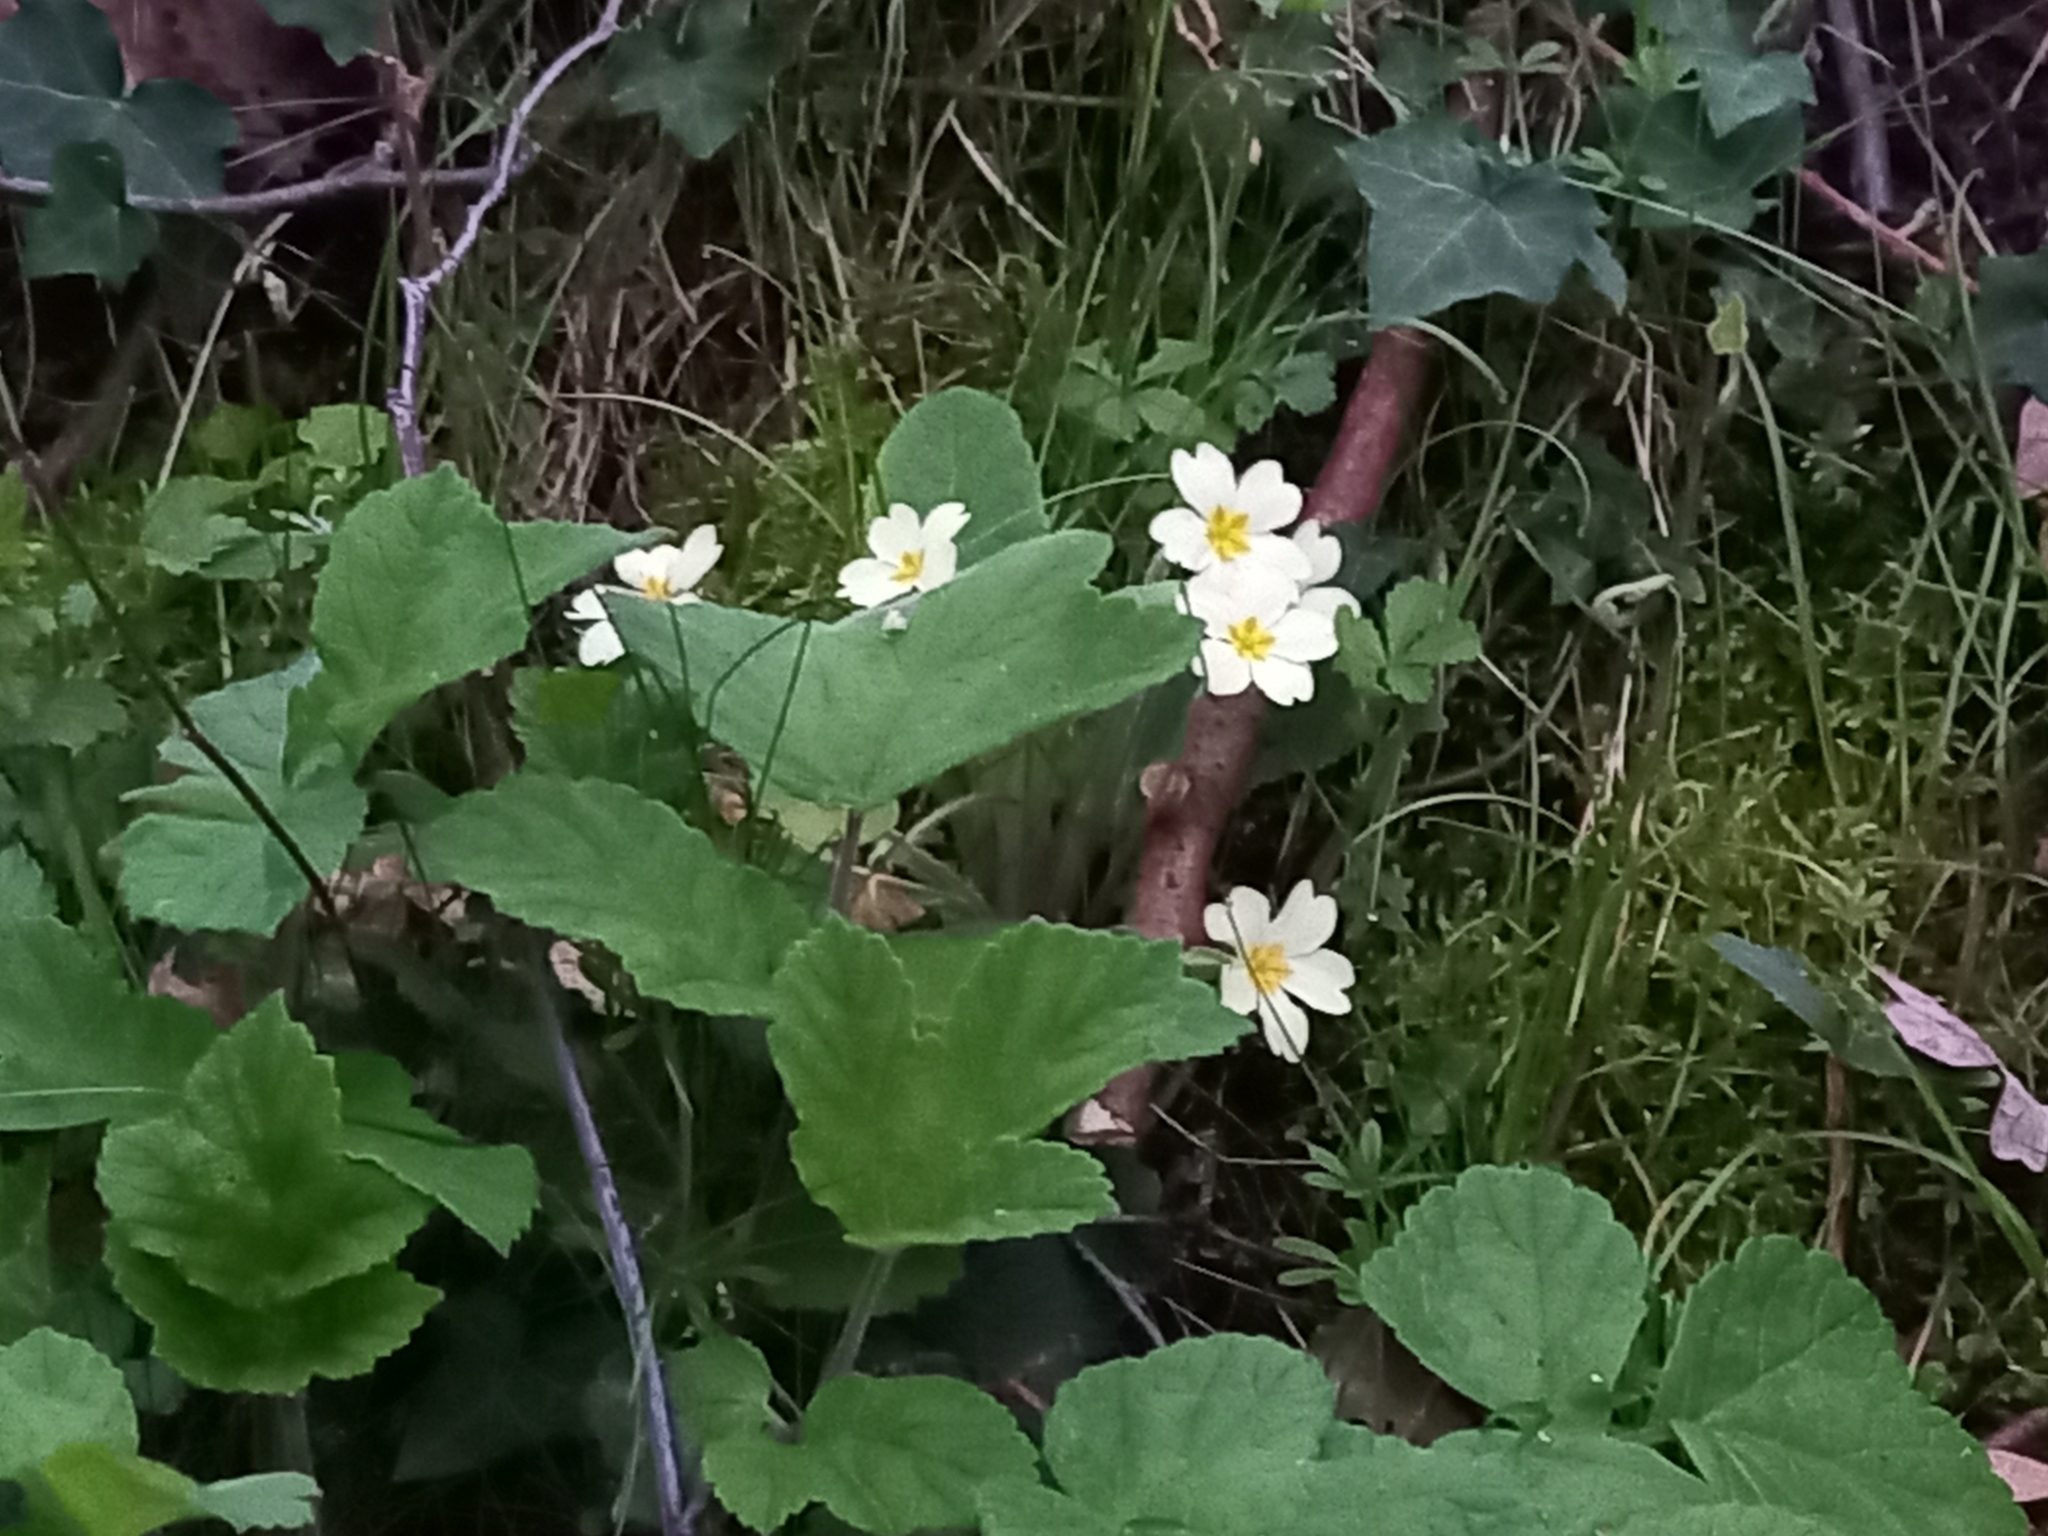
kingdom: Plantae
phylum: Tracheophyta
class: Magnoliopsida
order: Ericales
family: Primulaceae
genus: Primula
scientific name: Primula vulgaris
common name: Primrose
